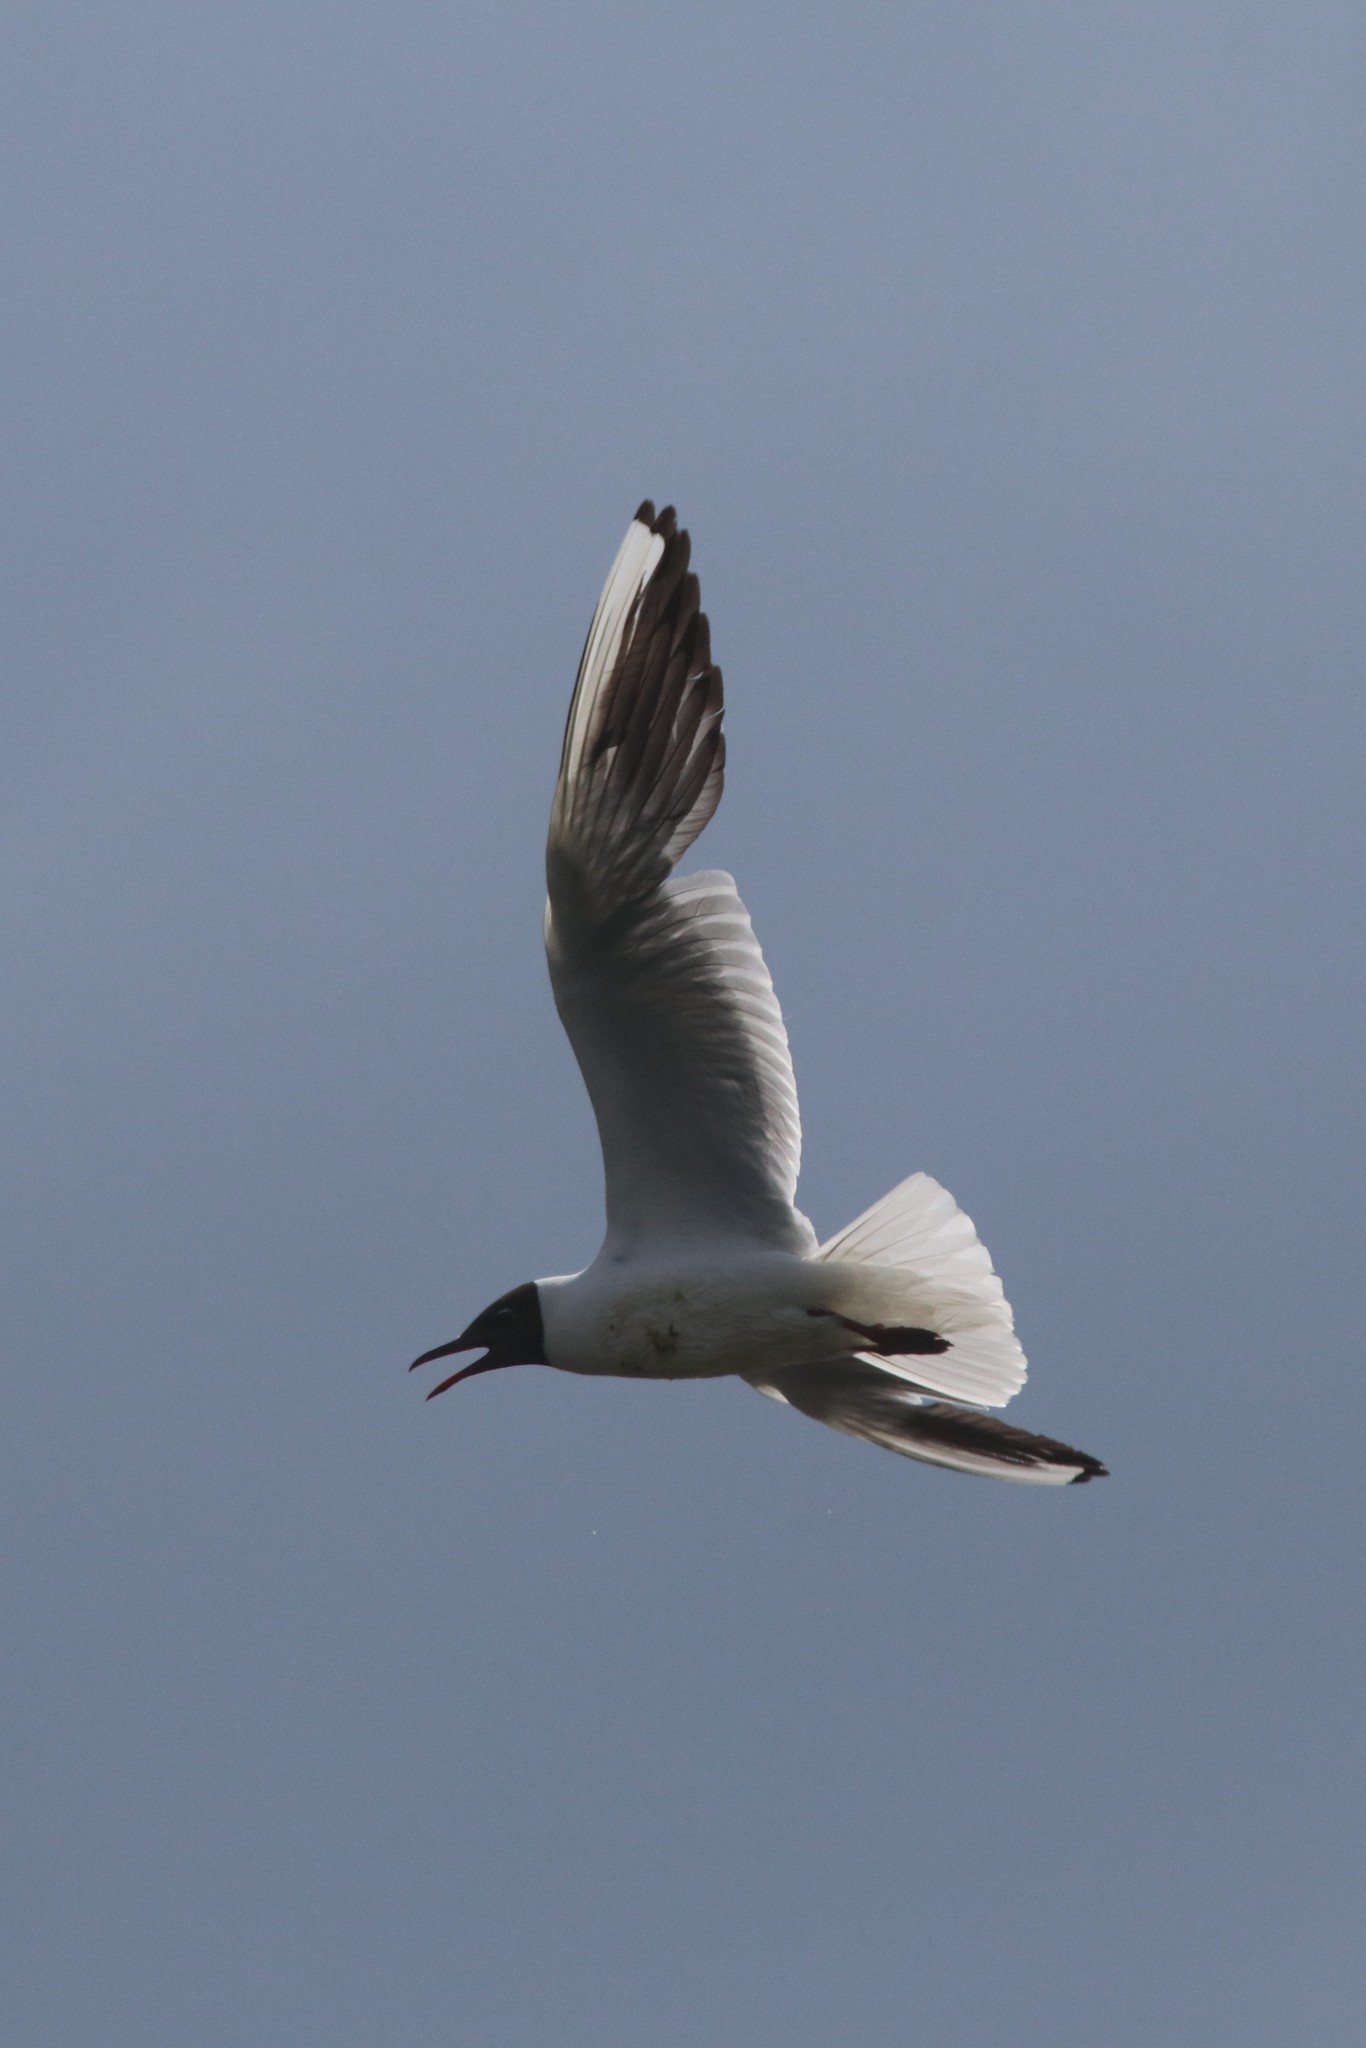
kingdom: Animalia
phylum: Chordata
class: Aves
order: Charadriiformes
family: Laridae
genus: Chroicocephalus
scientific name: Chroicocephalus ridibundus
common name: Black-headed gull
